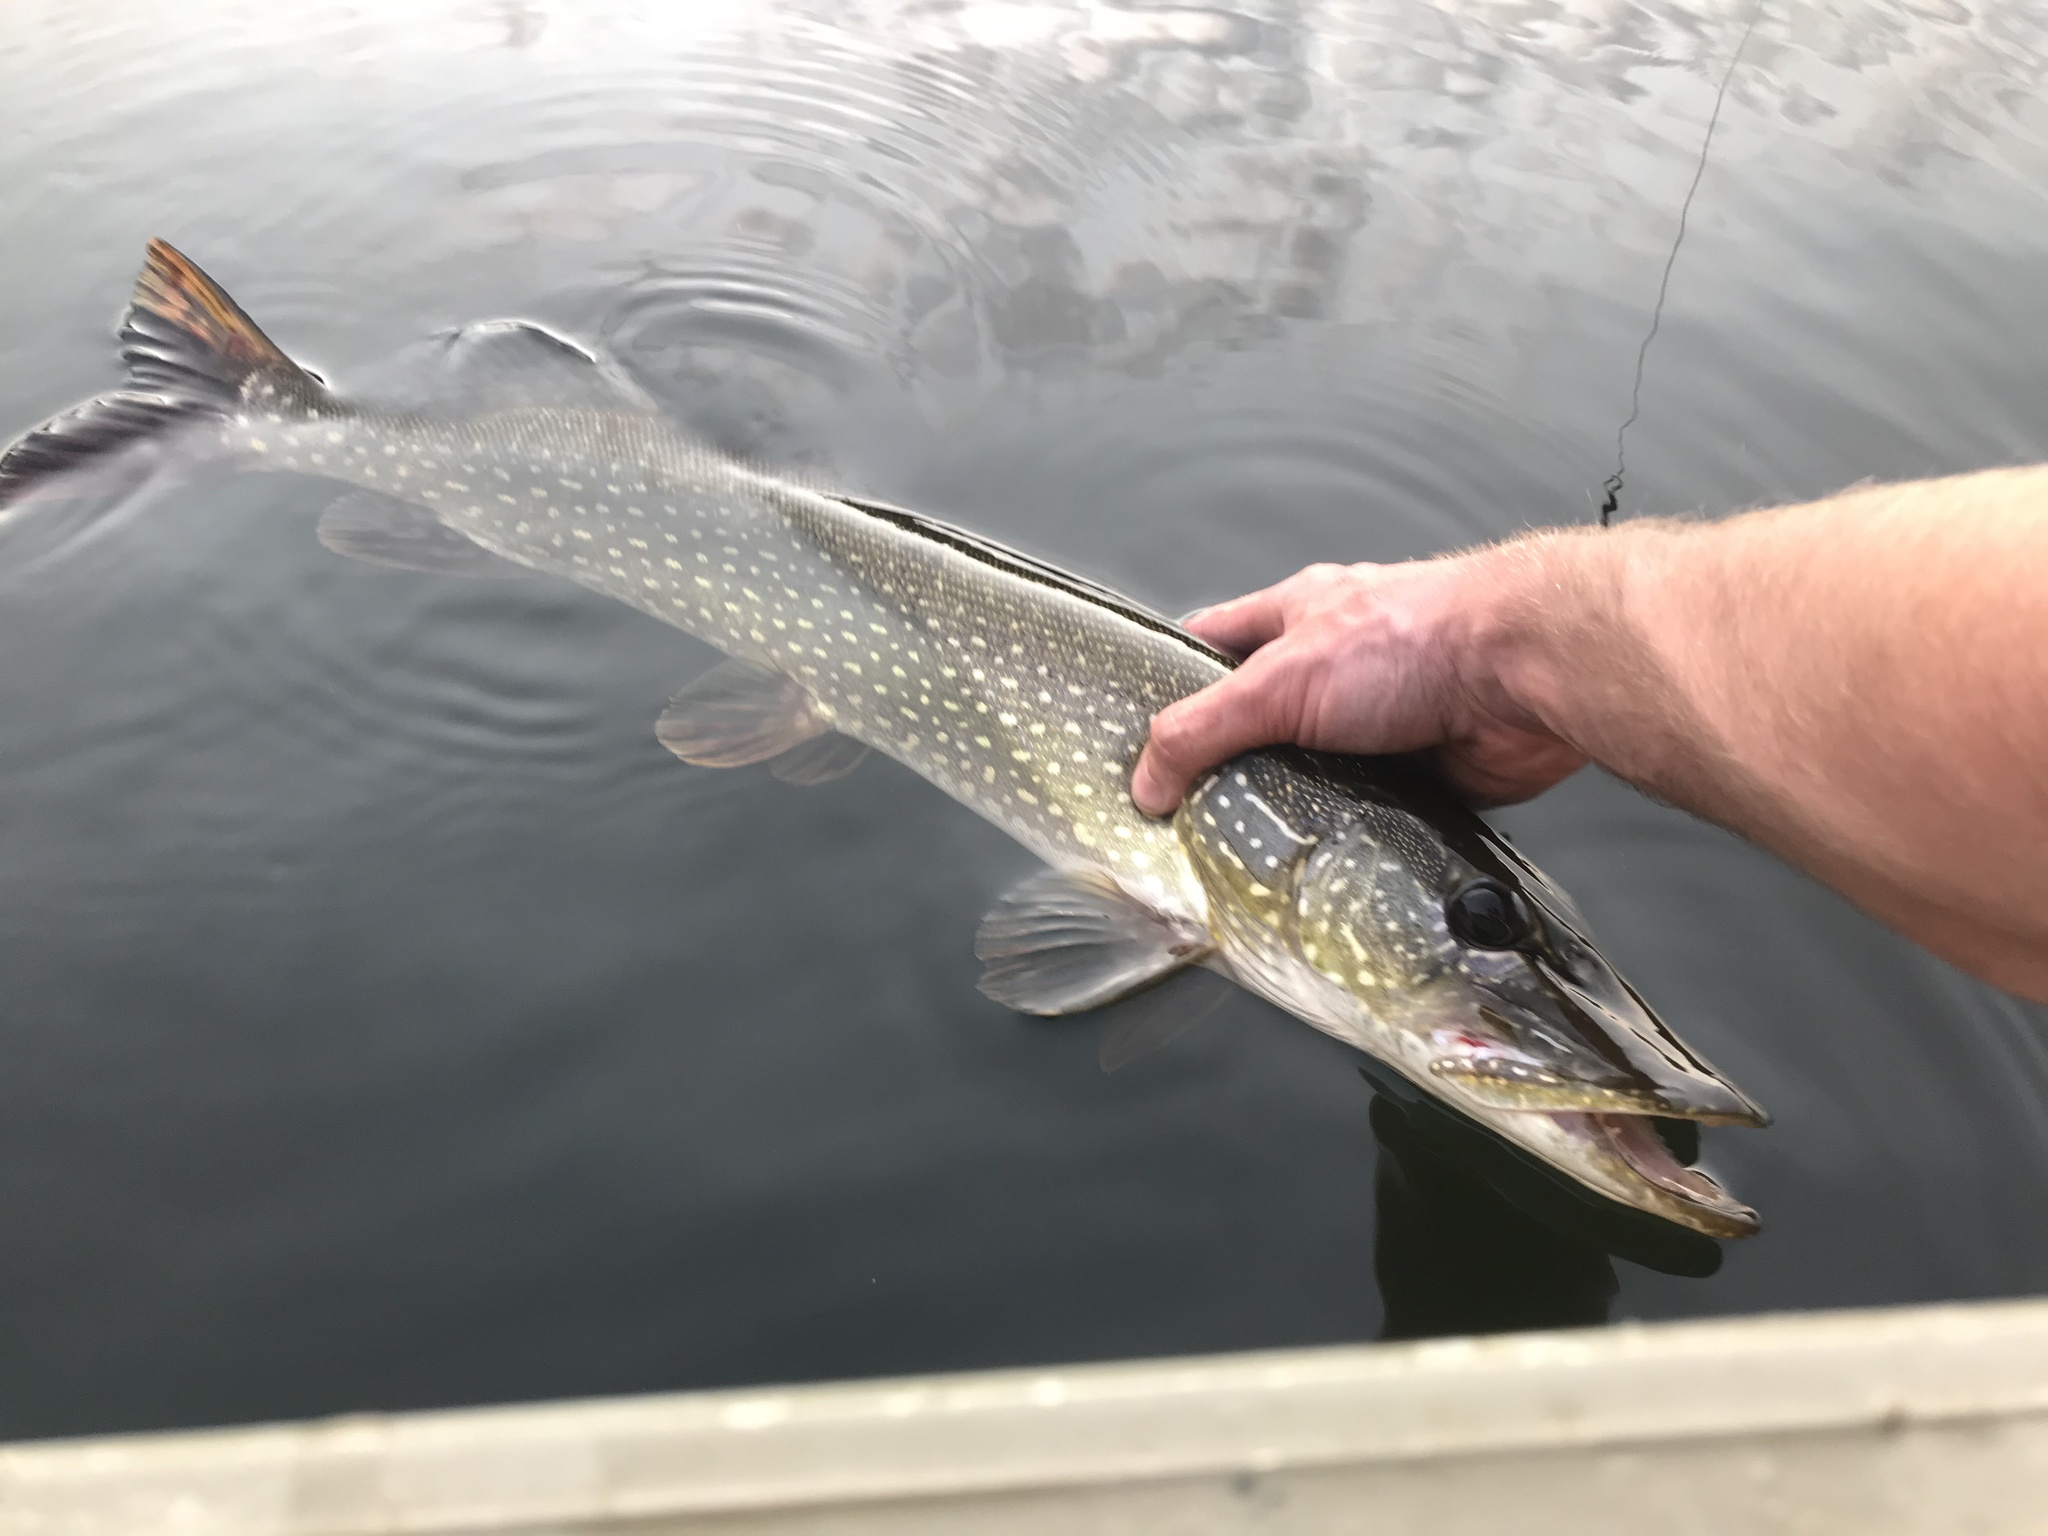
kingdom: Animalia
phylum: Chordata
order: Esociformes
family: Esocidae
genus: Esox
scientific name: Esox lucius
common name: Northern pike
